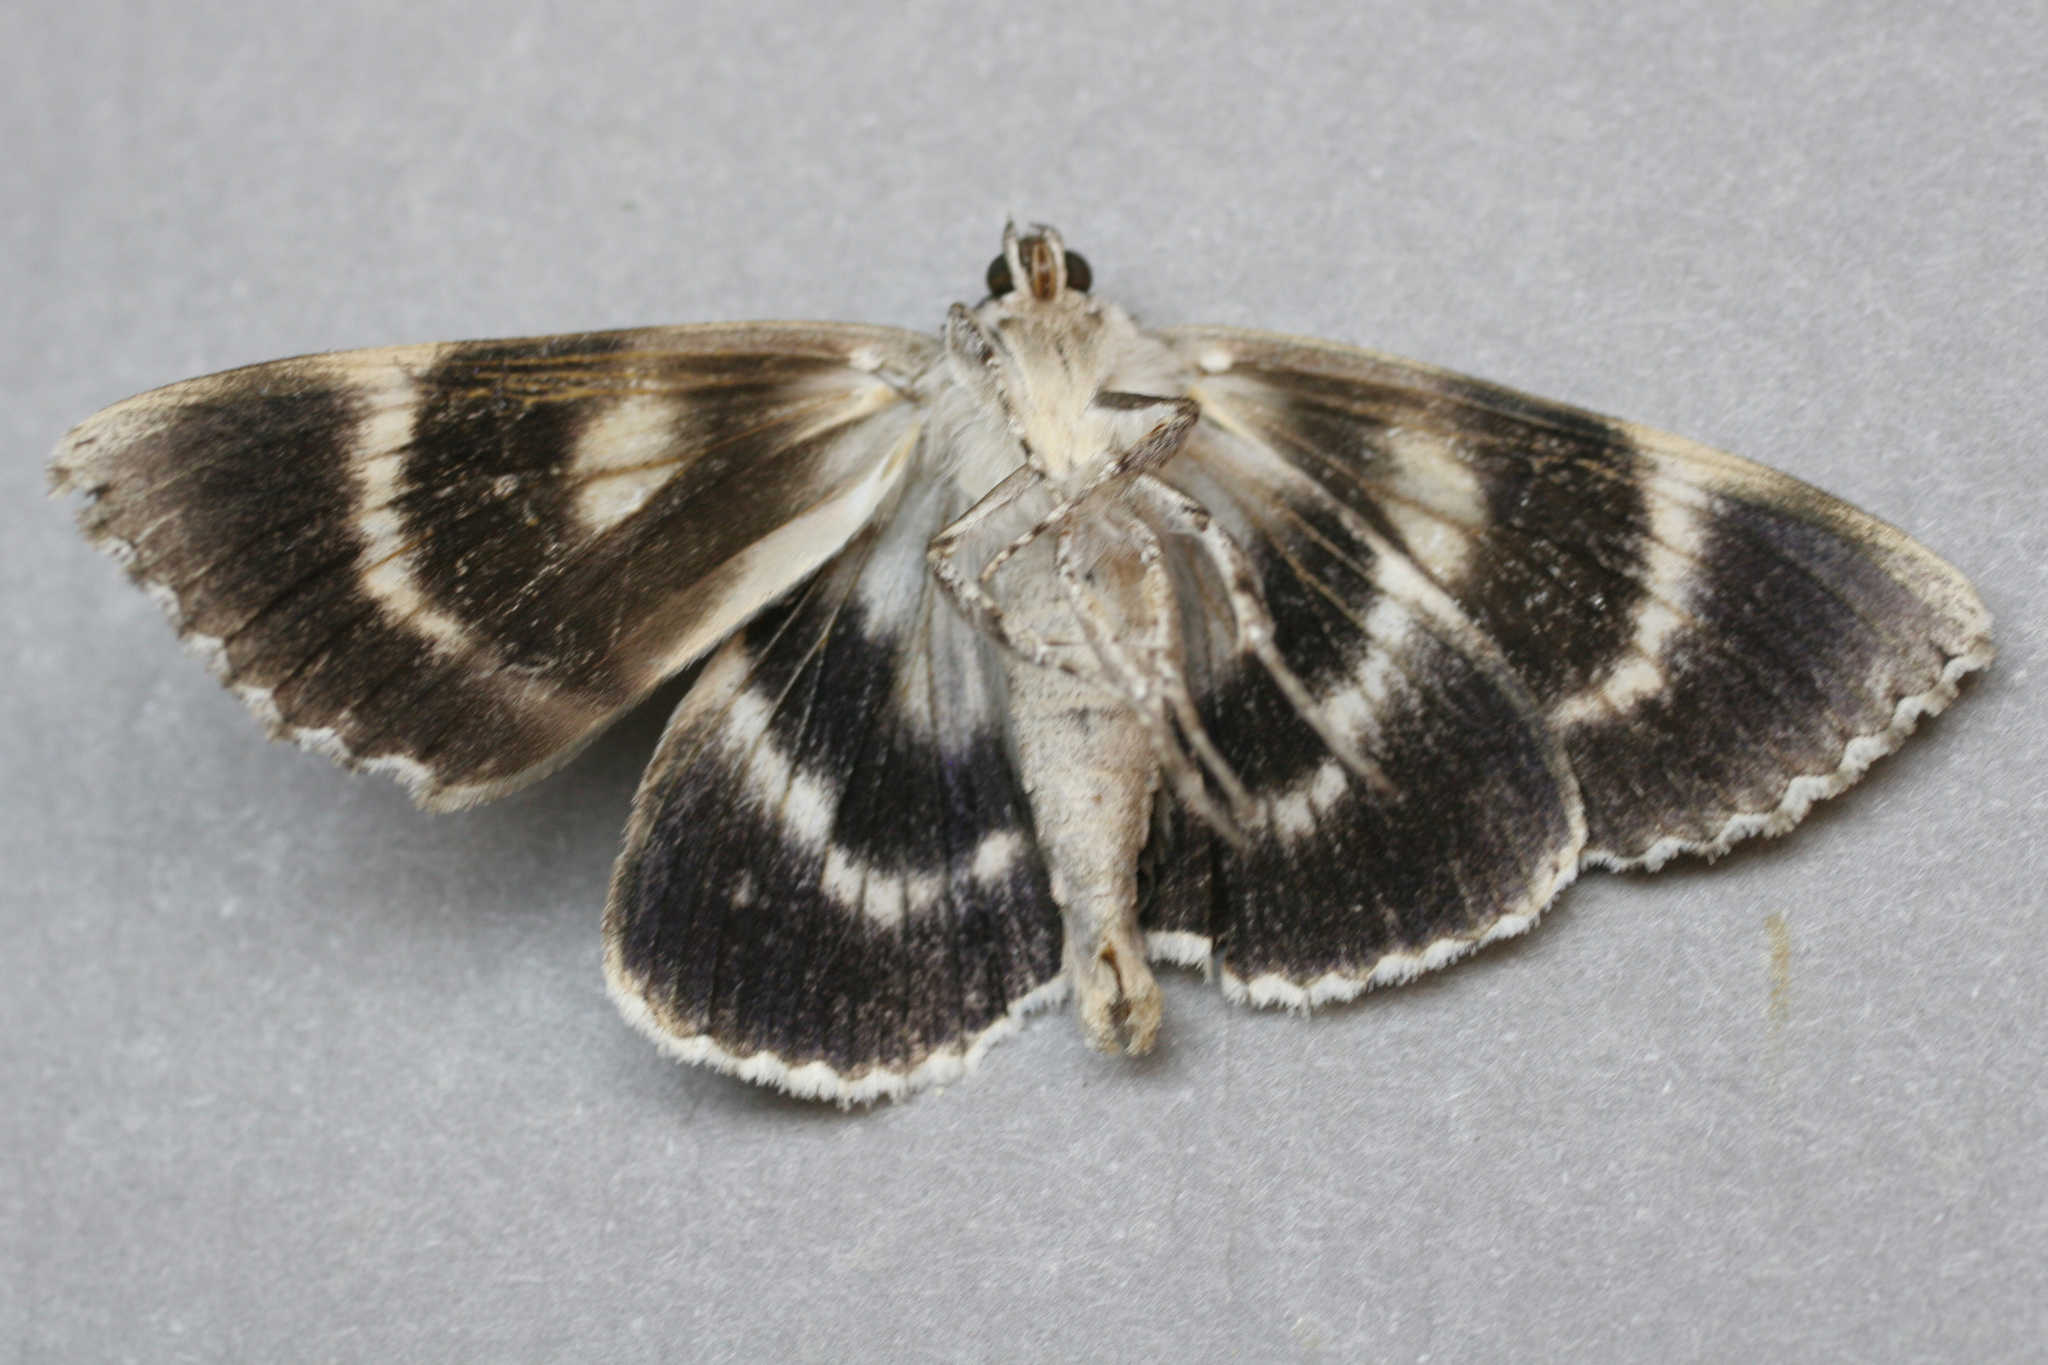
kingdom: Animalia
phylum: Arthropoda
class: Insecta
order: Lepidoptera
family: Erebidae
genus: Catocala
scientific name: Catocala retecta
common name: Yellow-gray underwing
